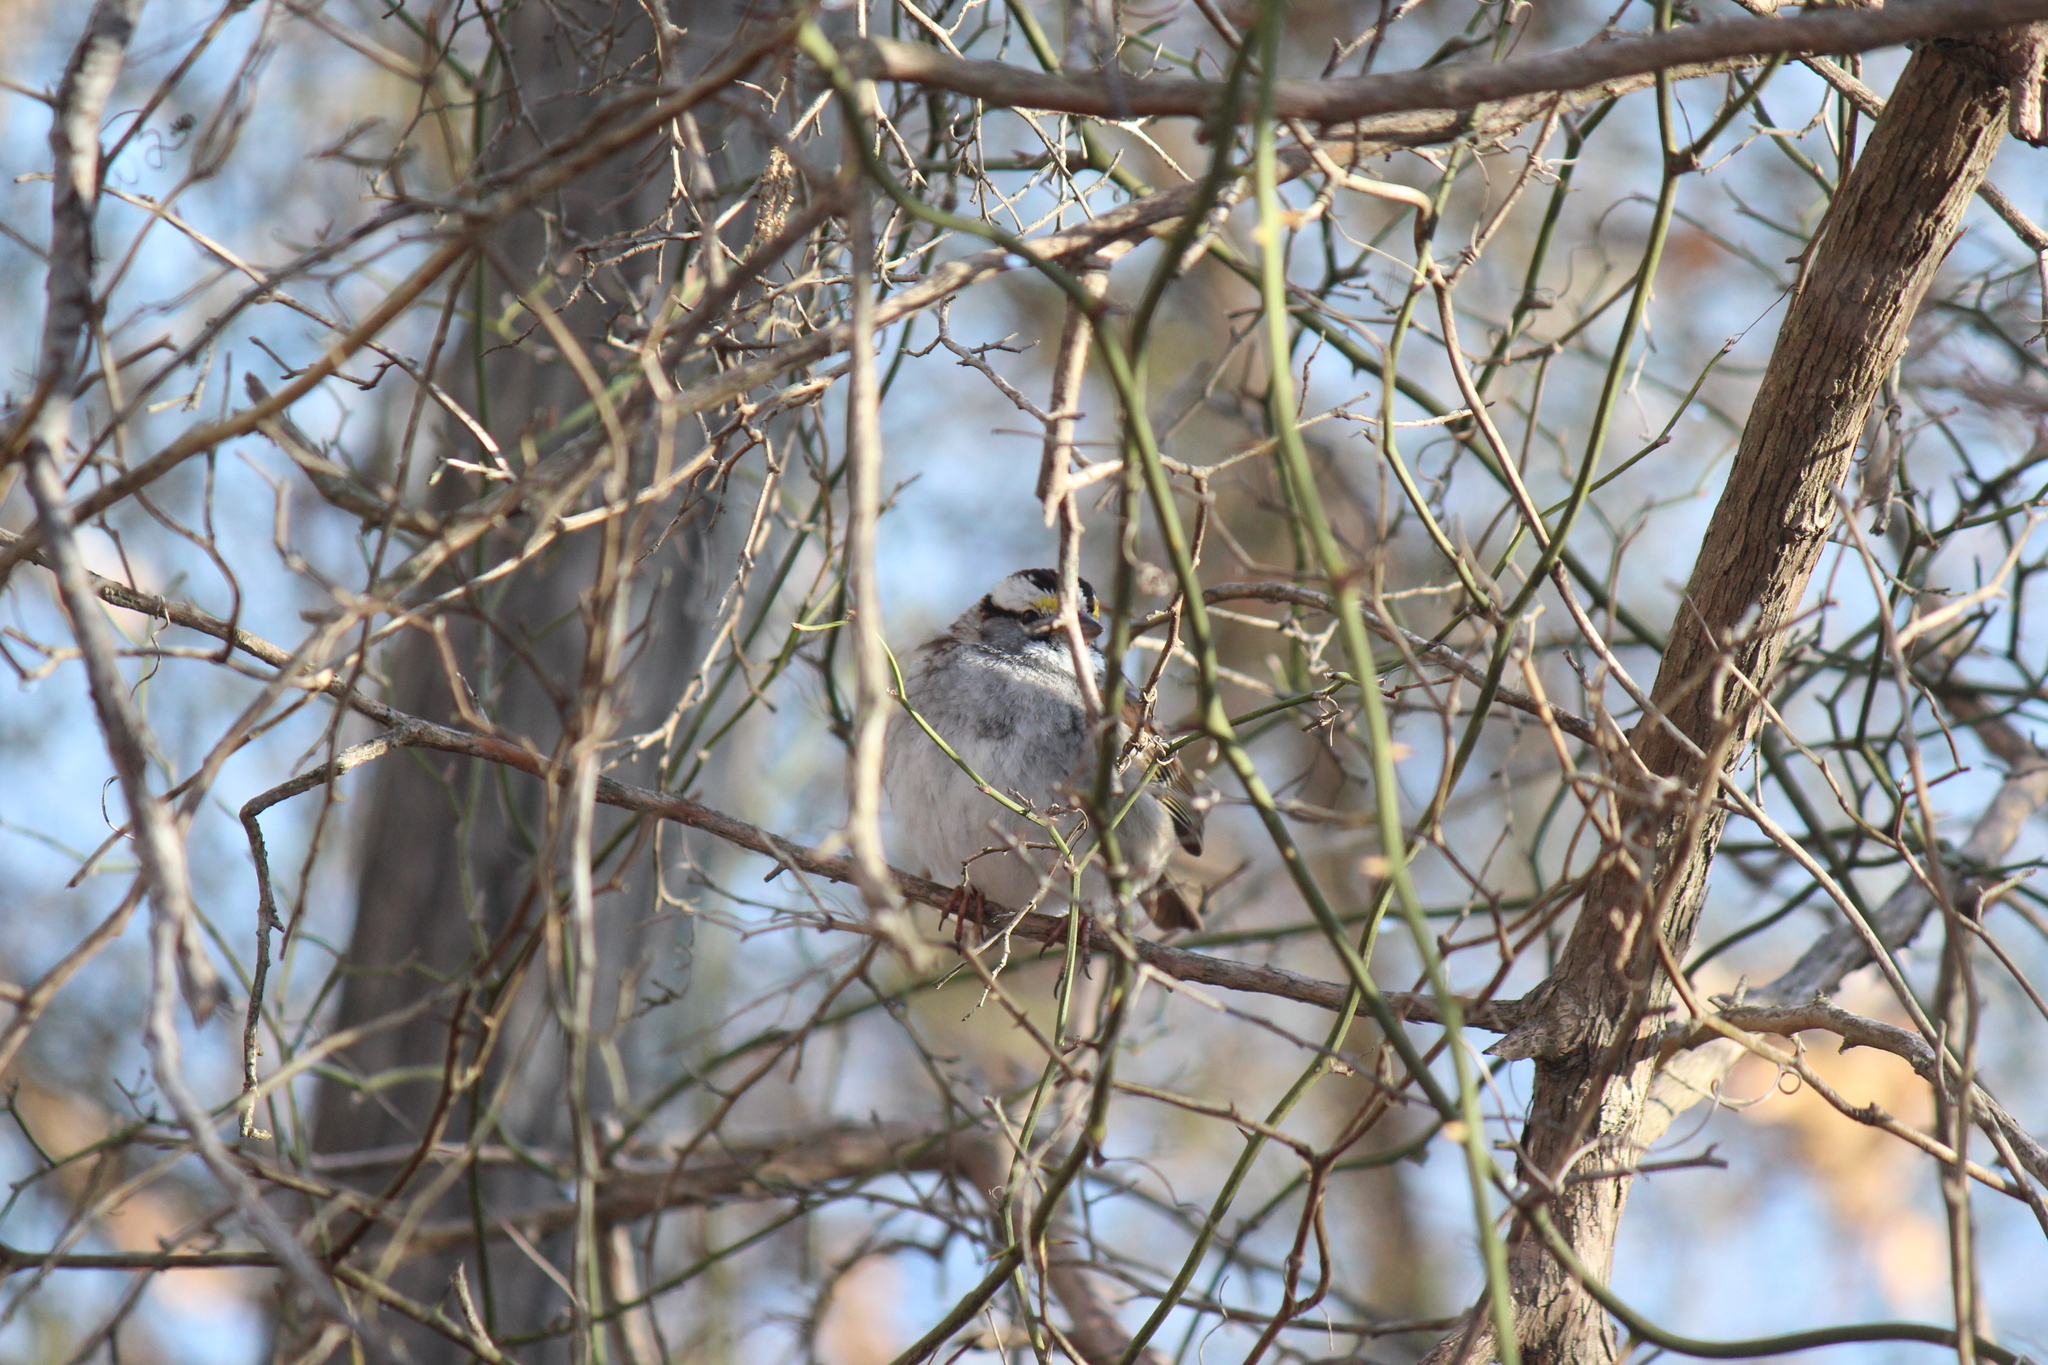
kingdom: Animalia
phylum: Chordata
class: Aves
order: Passeriformes
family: Passerellidae
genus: Zonotrichia
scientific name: Zonotrichia albicollis
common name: White-throated sparrow
